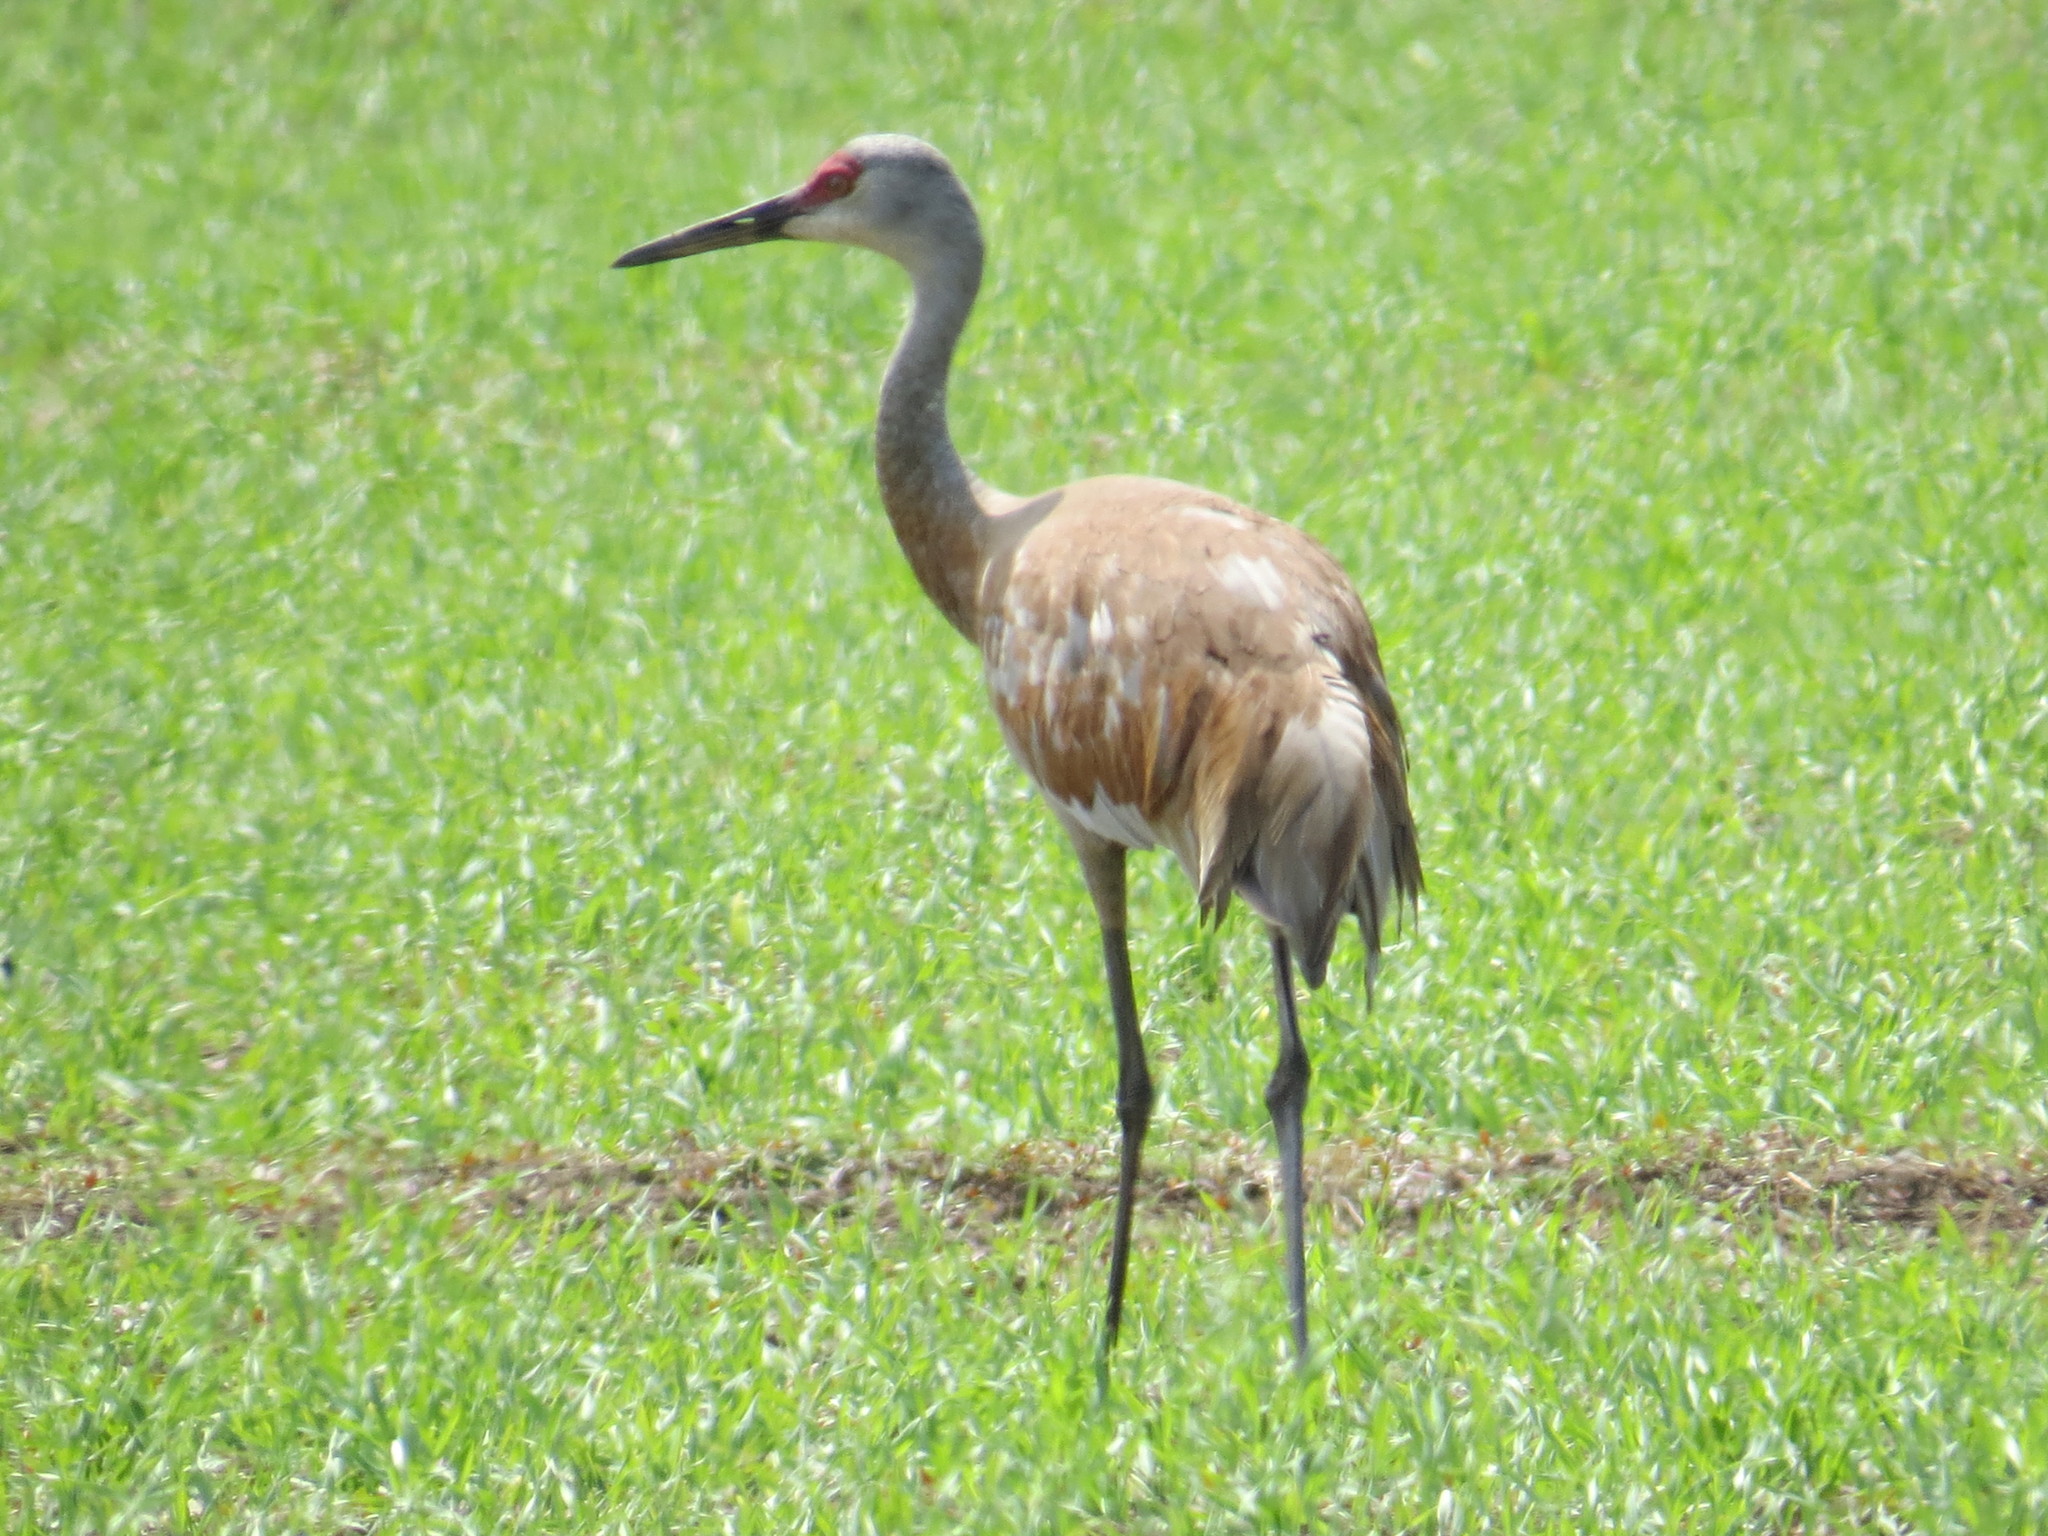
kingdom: Animalia
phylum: Chordata
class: Aves
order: Gruiformes
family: Gruidae
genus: Grus
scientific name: Grus canadensis
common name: Sandhill crane
